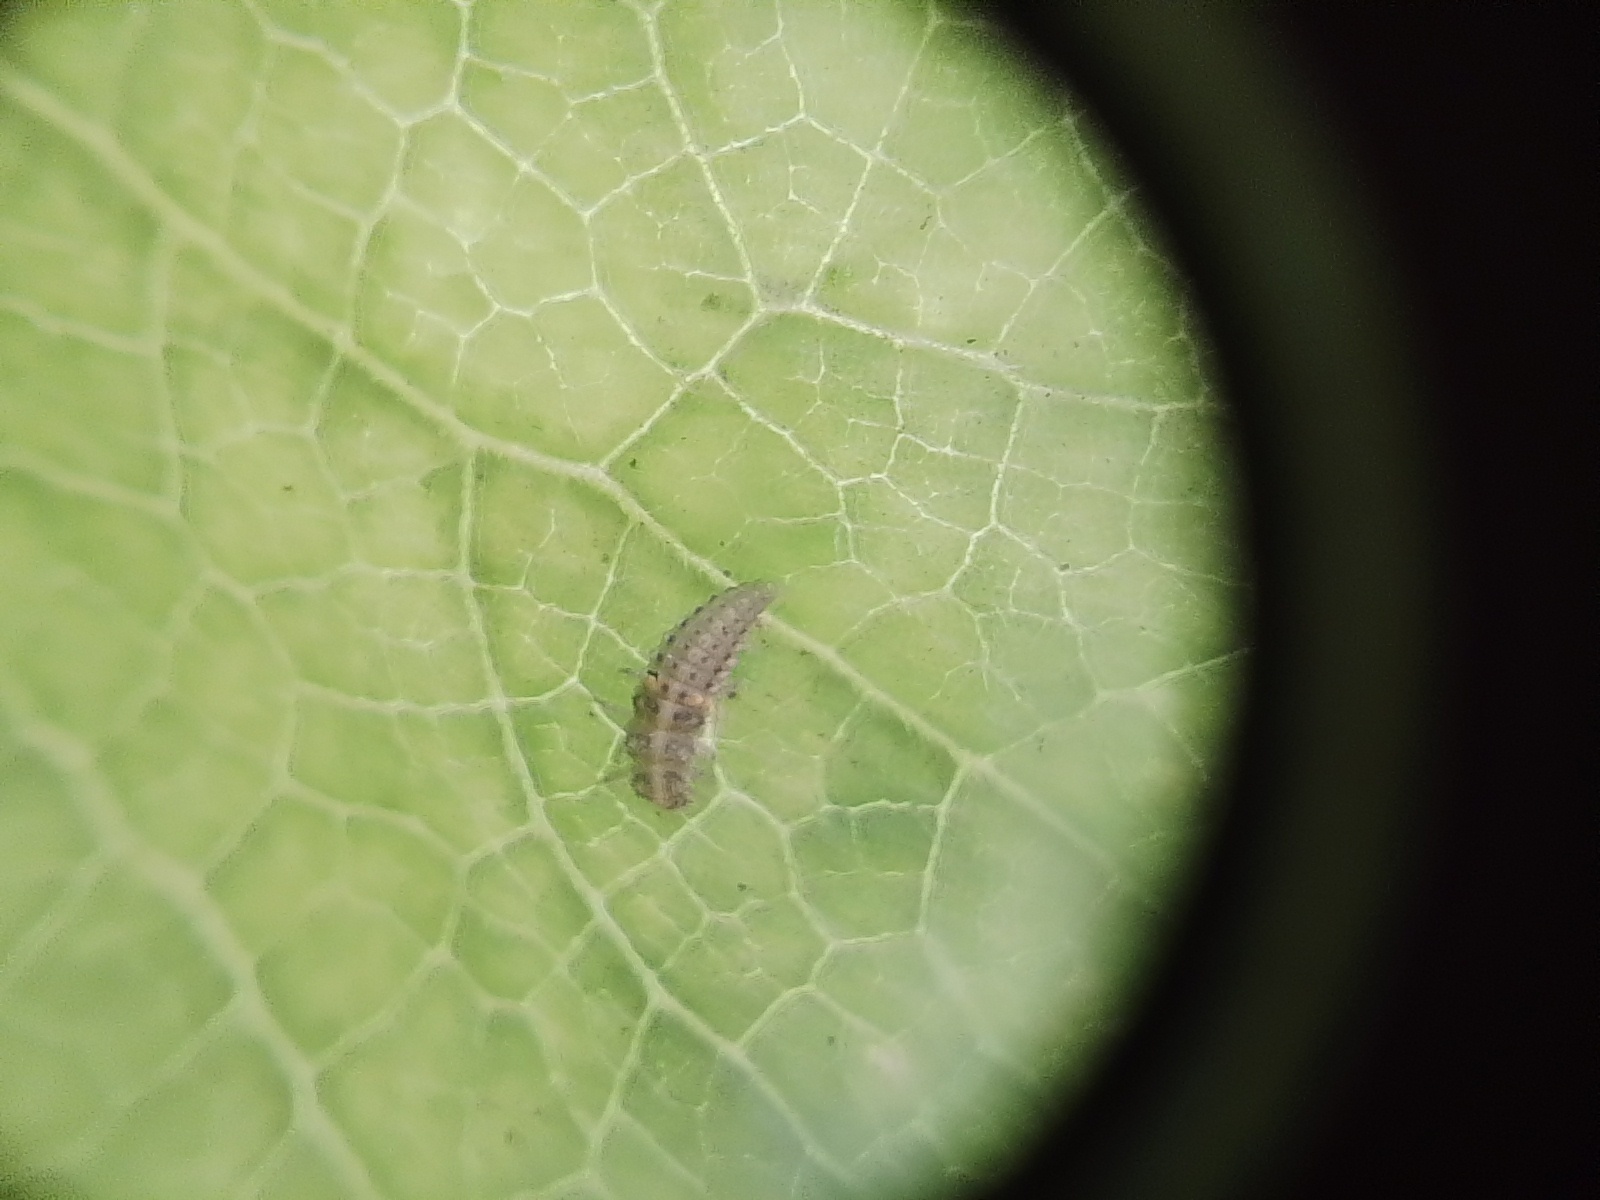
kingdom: Animalia
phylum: Arthropoda
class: Insecta
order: Coleoptera
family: Coccinellidae
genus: Psyllobora
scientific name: Psyllobora
